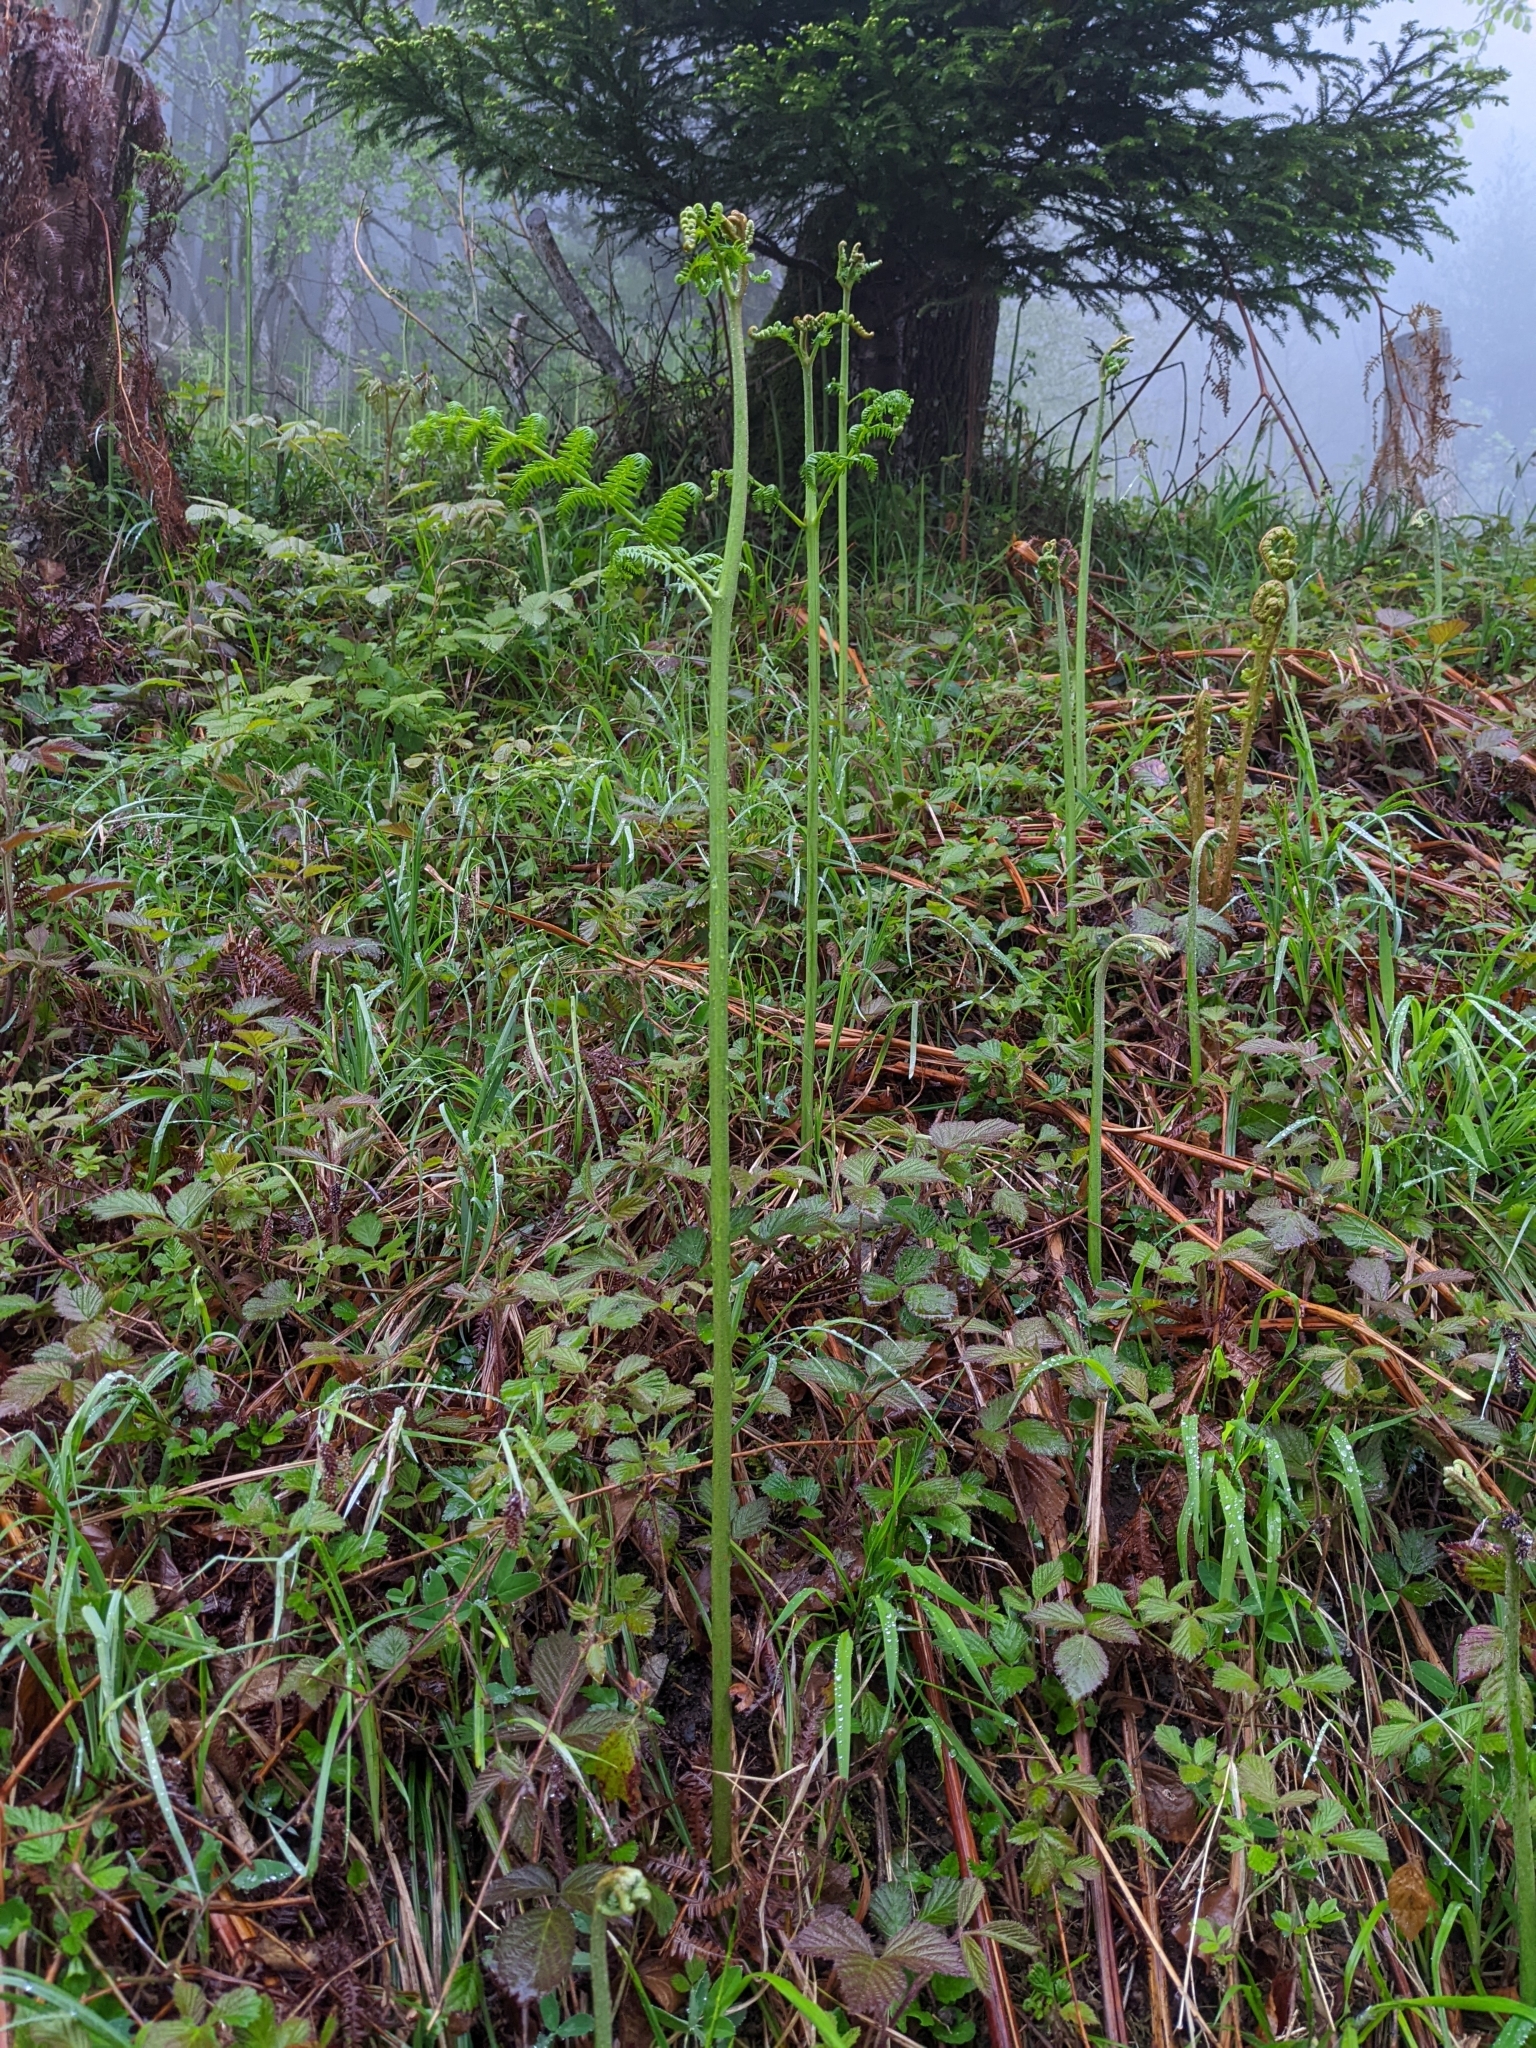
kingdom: Plantae
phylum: Tracheophyta
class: Polypodiopsida
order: Polypodiales
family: Dennstaedtiaceae
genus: Pteridium
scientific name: Pteridium aquilinum
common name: Bracken
